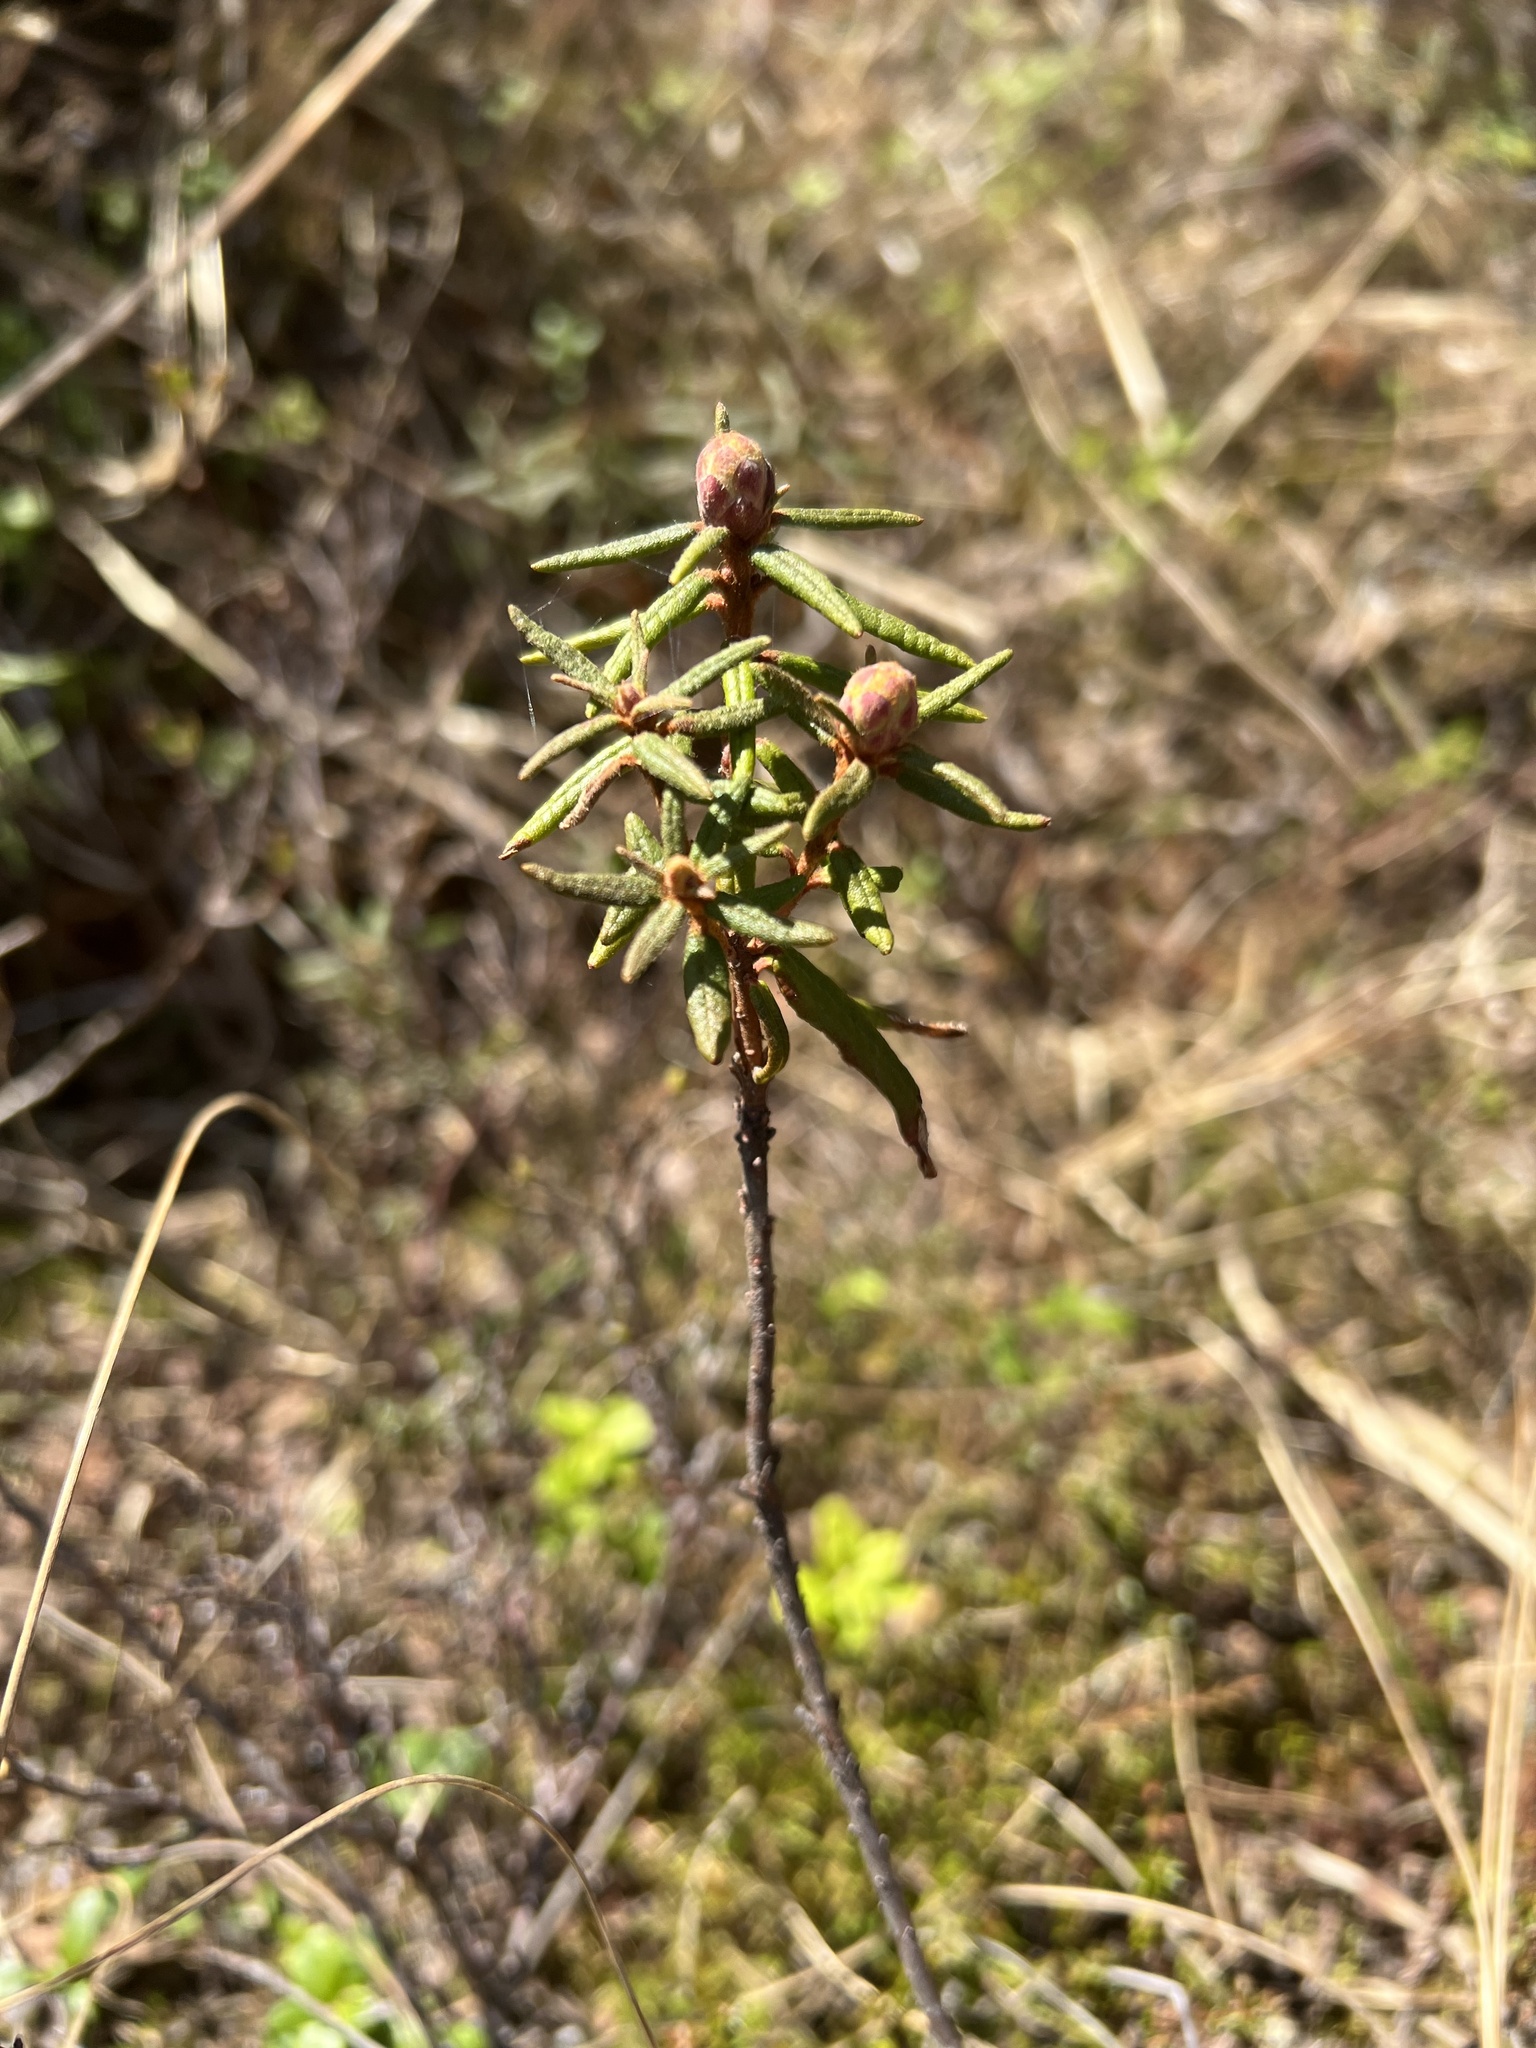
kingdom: Plantae
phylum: Tracheophyta
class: Magnoliopsida
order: Ericales
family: Ericaceae
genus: Rhododendron
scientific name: Rhododendron tomentosum
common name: Marsh labrador tea
